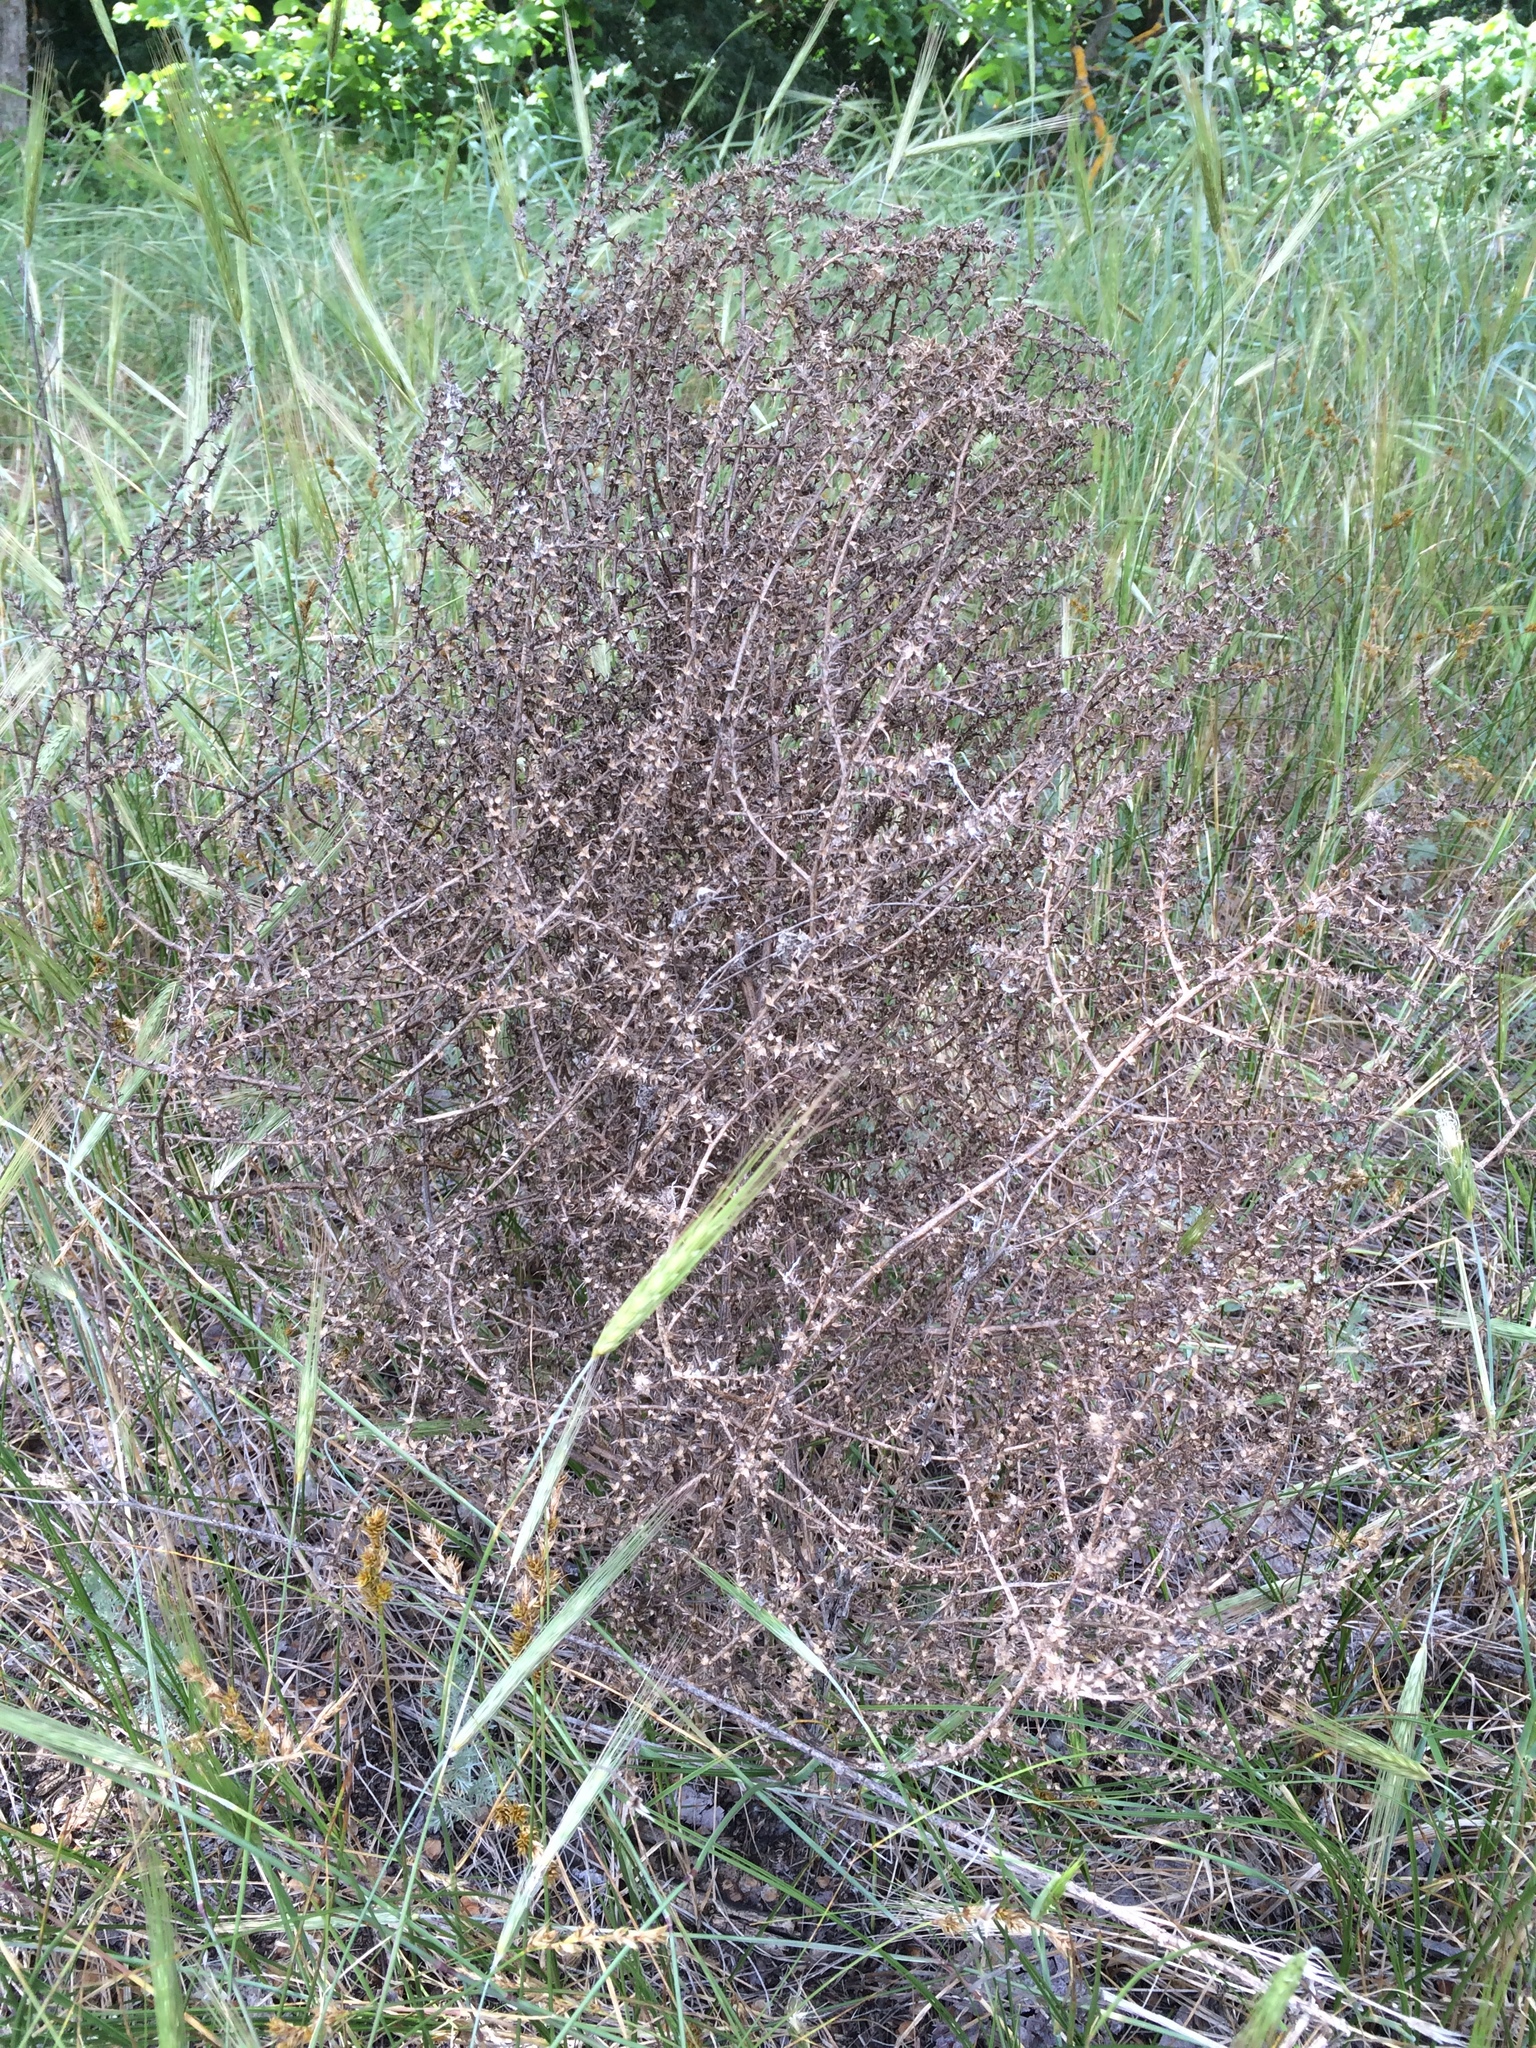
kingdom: Plantae
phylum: Tracheophyta
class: Magnoliopsida
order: Caryophyllales
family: Amaranthaceae
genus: Salsola
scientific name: Salsola tragus
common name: Prickly russian thistle
